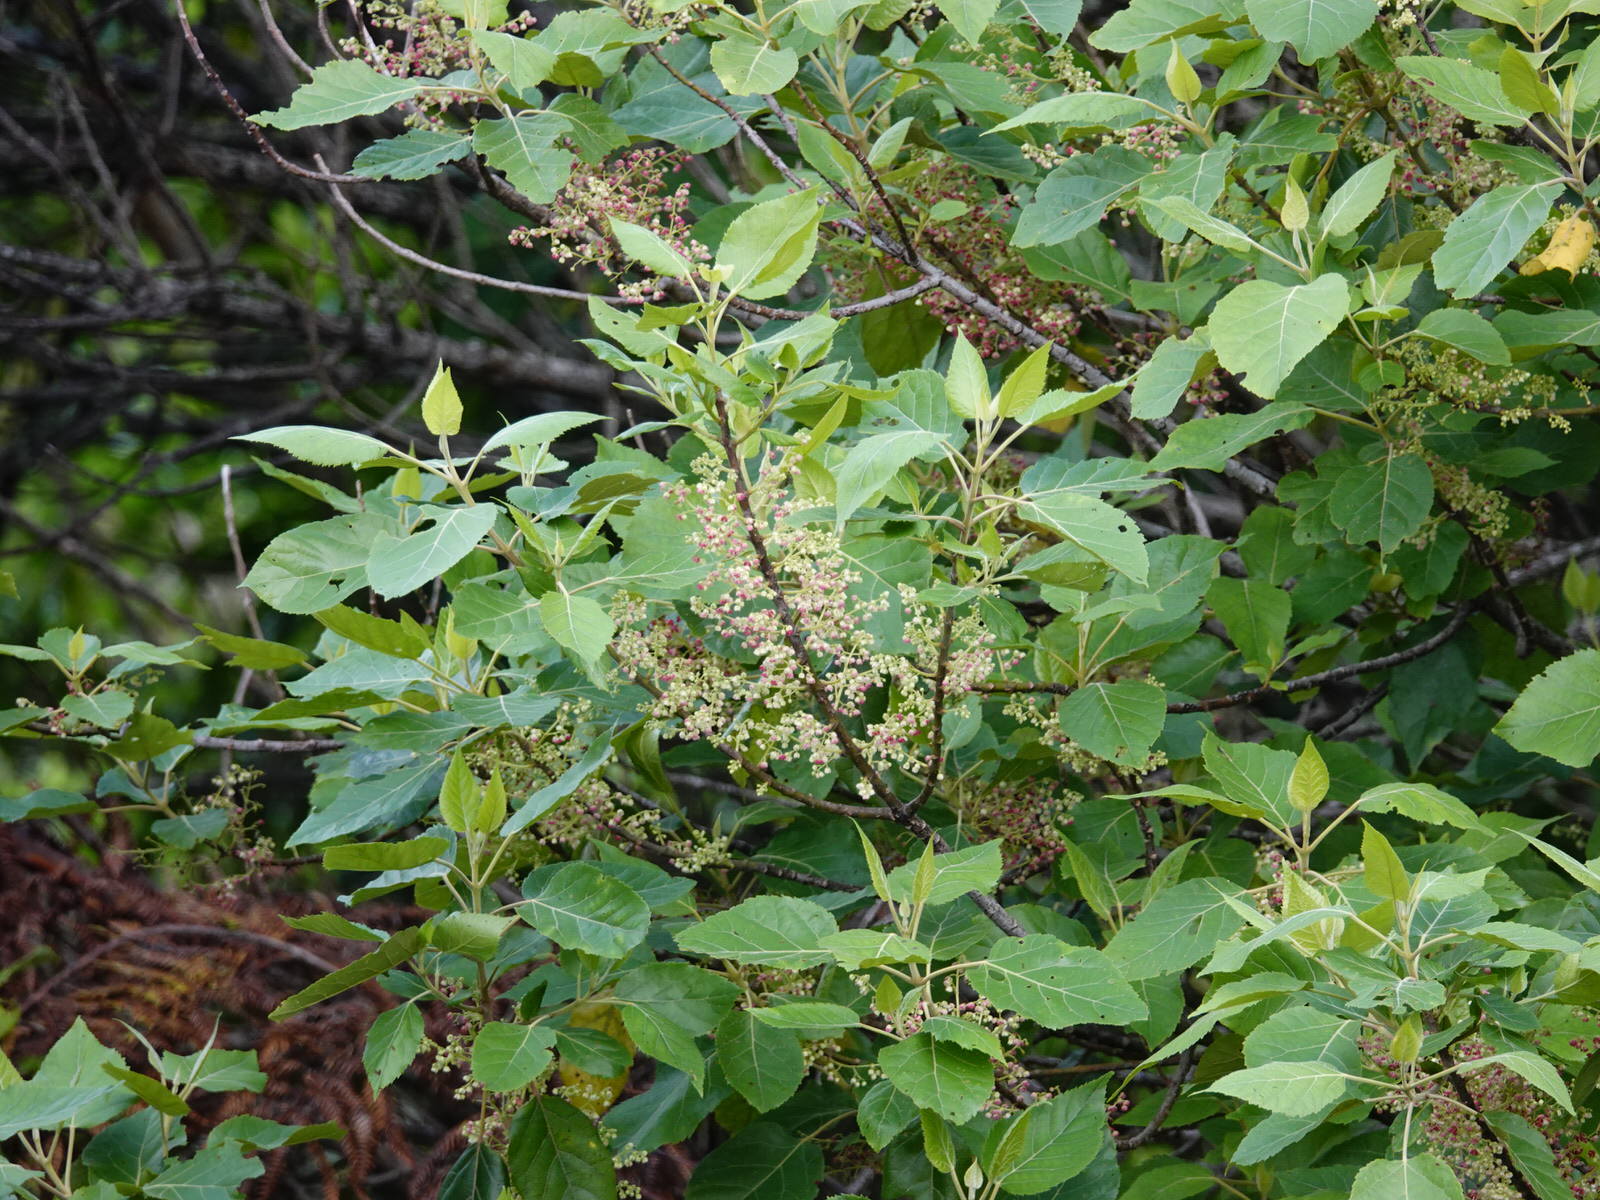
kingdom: Plantae
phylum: Tracheophyta
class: Magnoliopsida
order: Oxalidales
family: Elaeocarpaceae
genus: Aristotelia
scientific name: Aristotelia serrata
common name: New zealand wineberry
